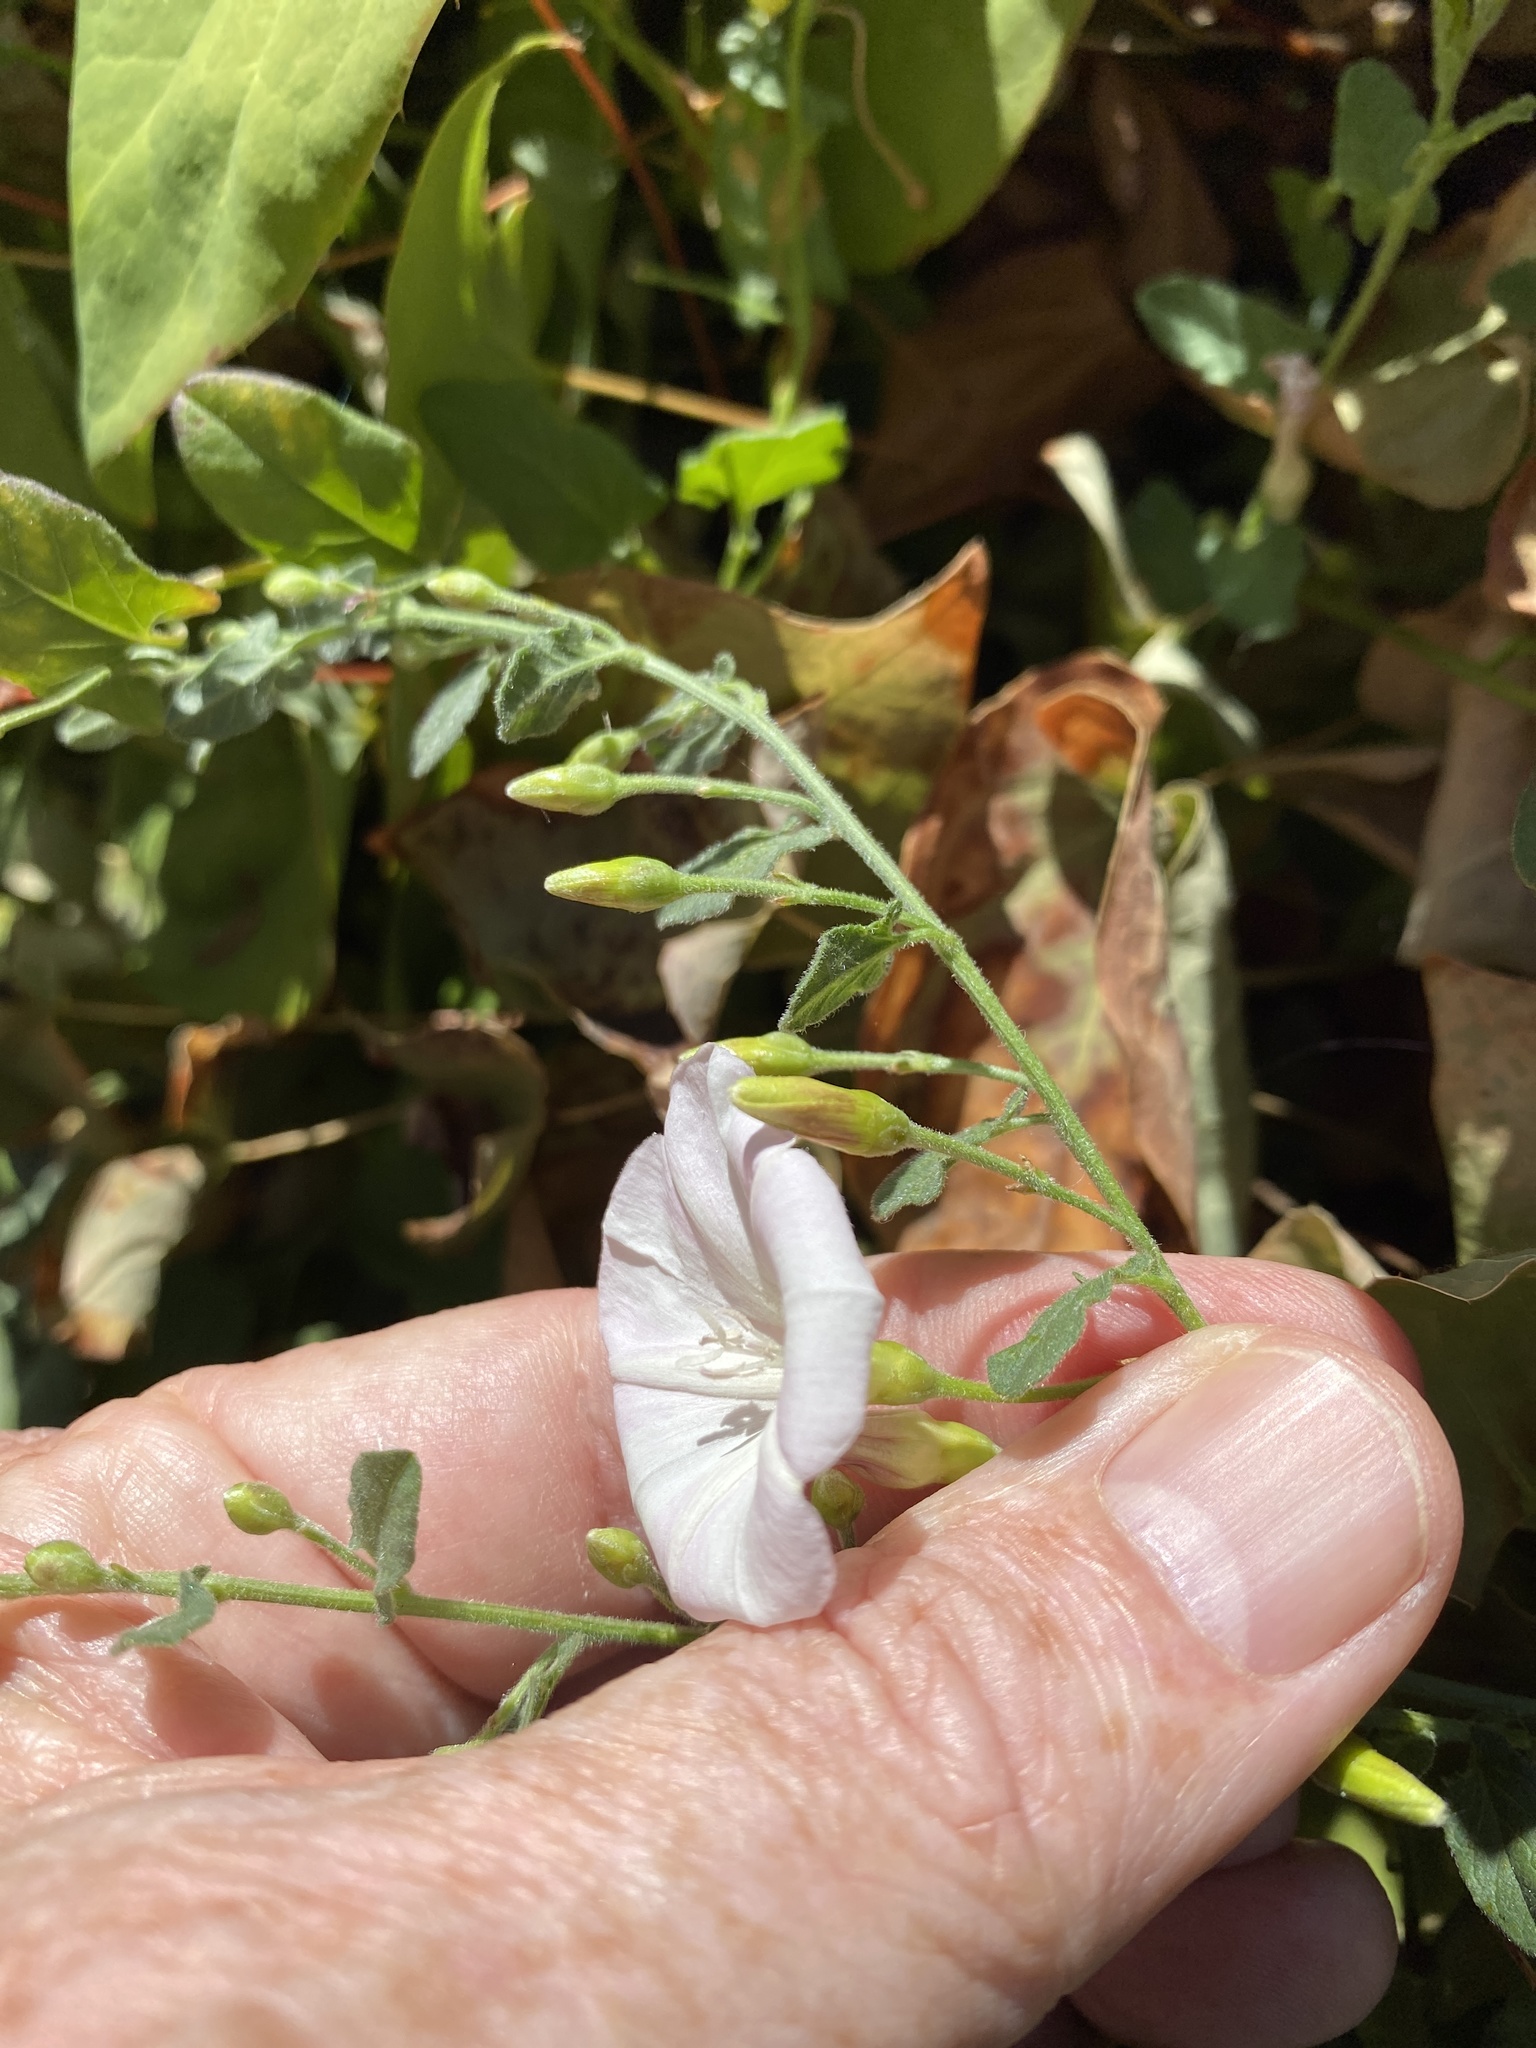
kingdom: Plantae
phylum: Tracheophyta
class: Magnoliopsida
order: Solanales
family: Convolvulaceae
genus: Convolvulus
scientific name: Convolvulus arvensis
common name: Field bindweed
